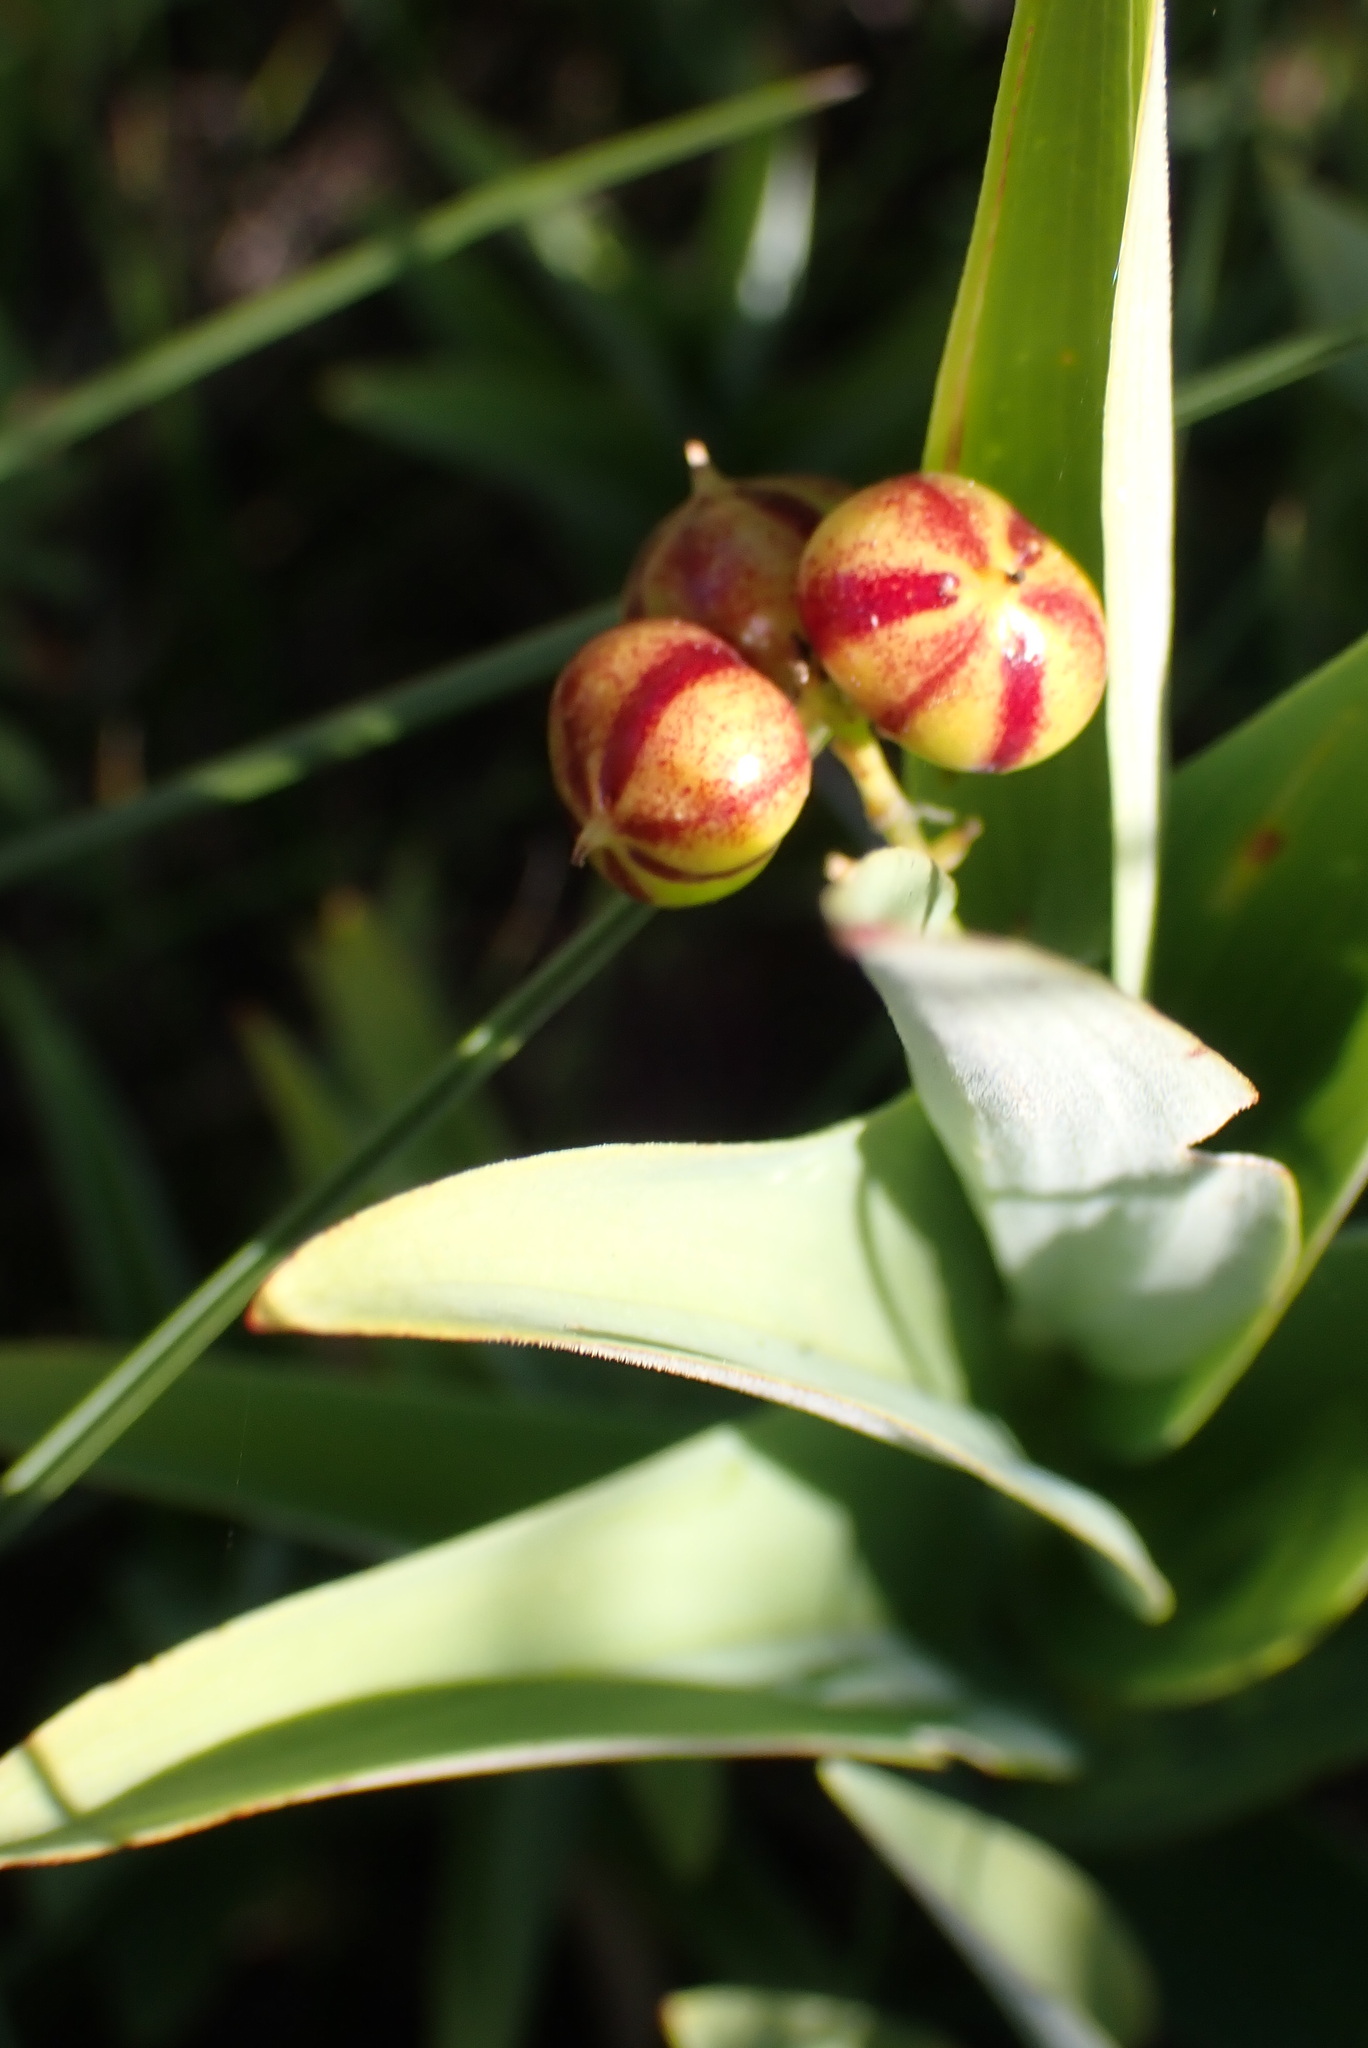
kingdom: Plantae
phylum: Tracheophyta
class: Liliopsida
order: Asparagales
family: Asparagaceae
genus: Maianthemum
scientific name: Maianthemum stellatum
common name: Little false solomon's seal
